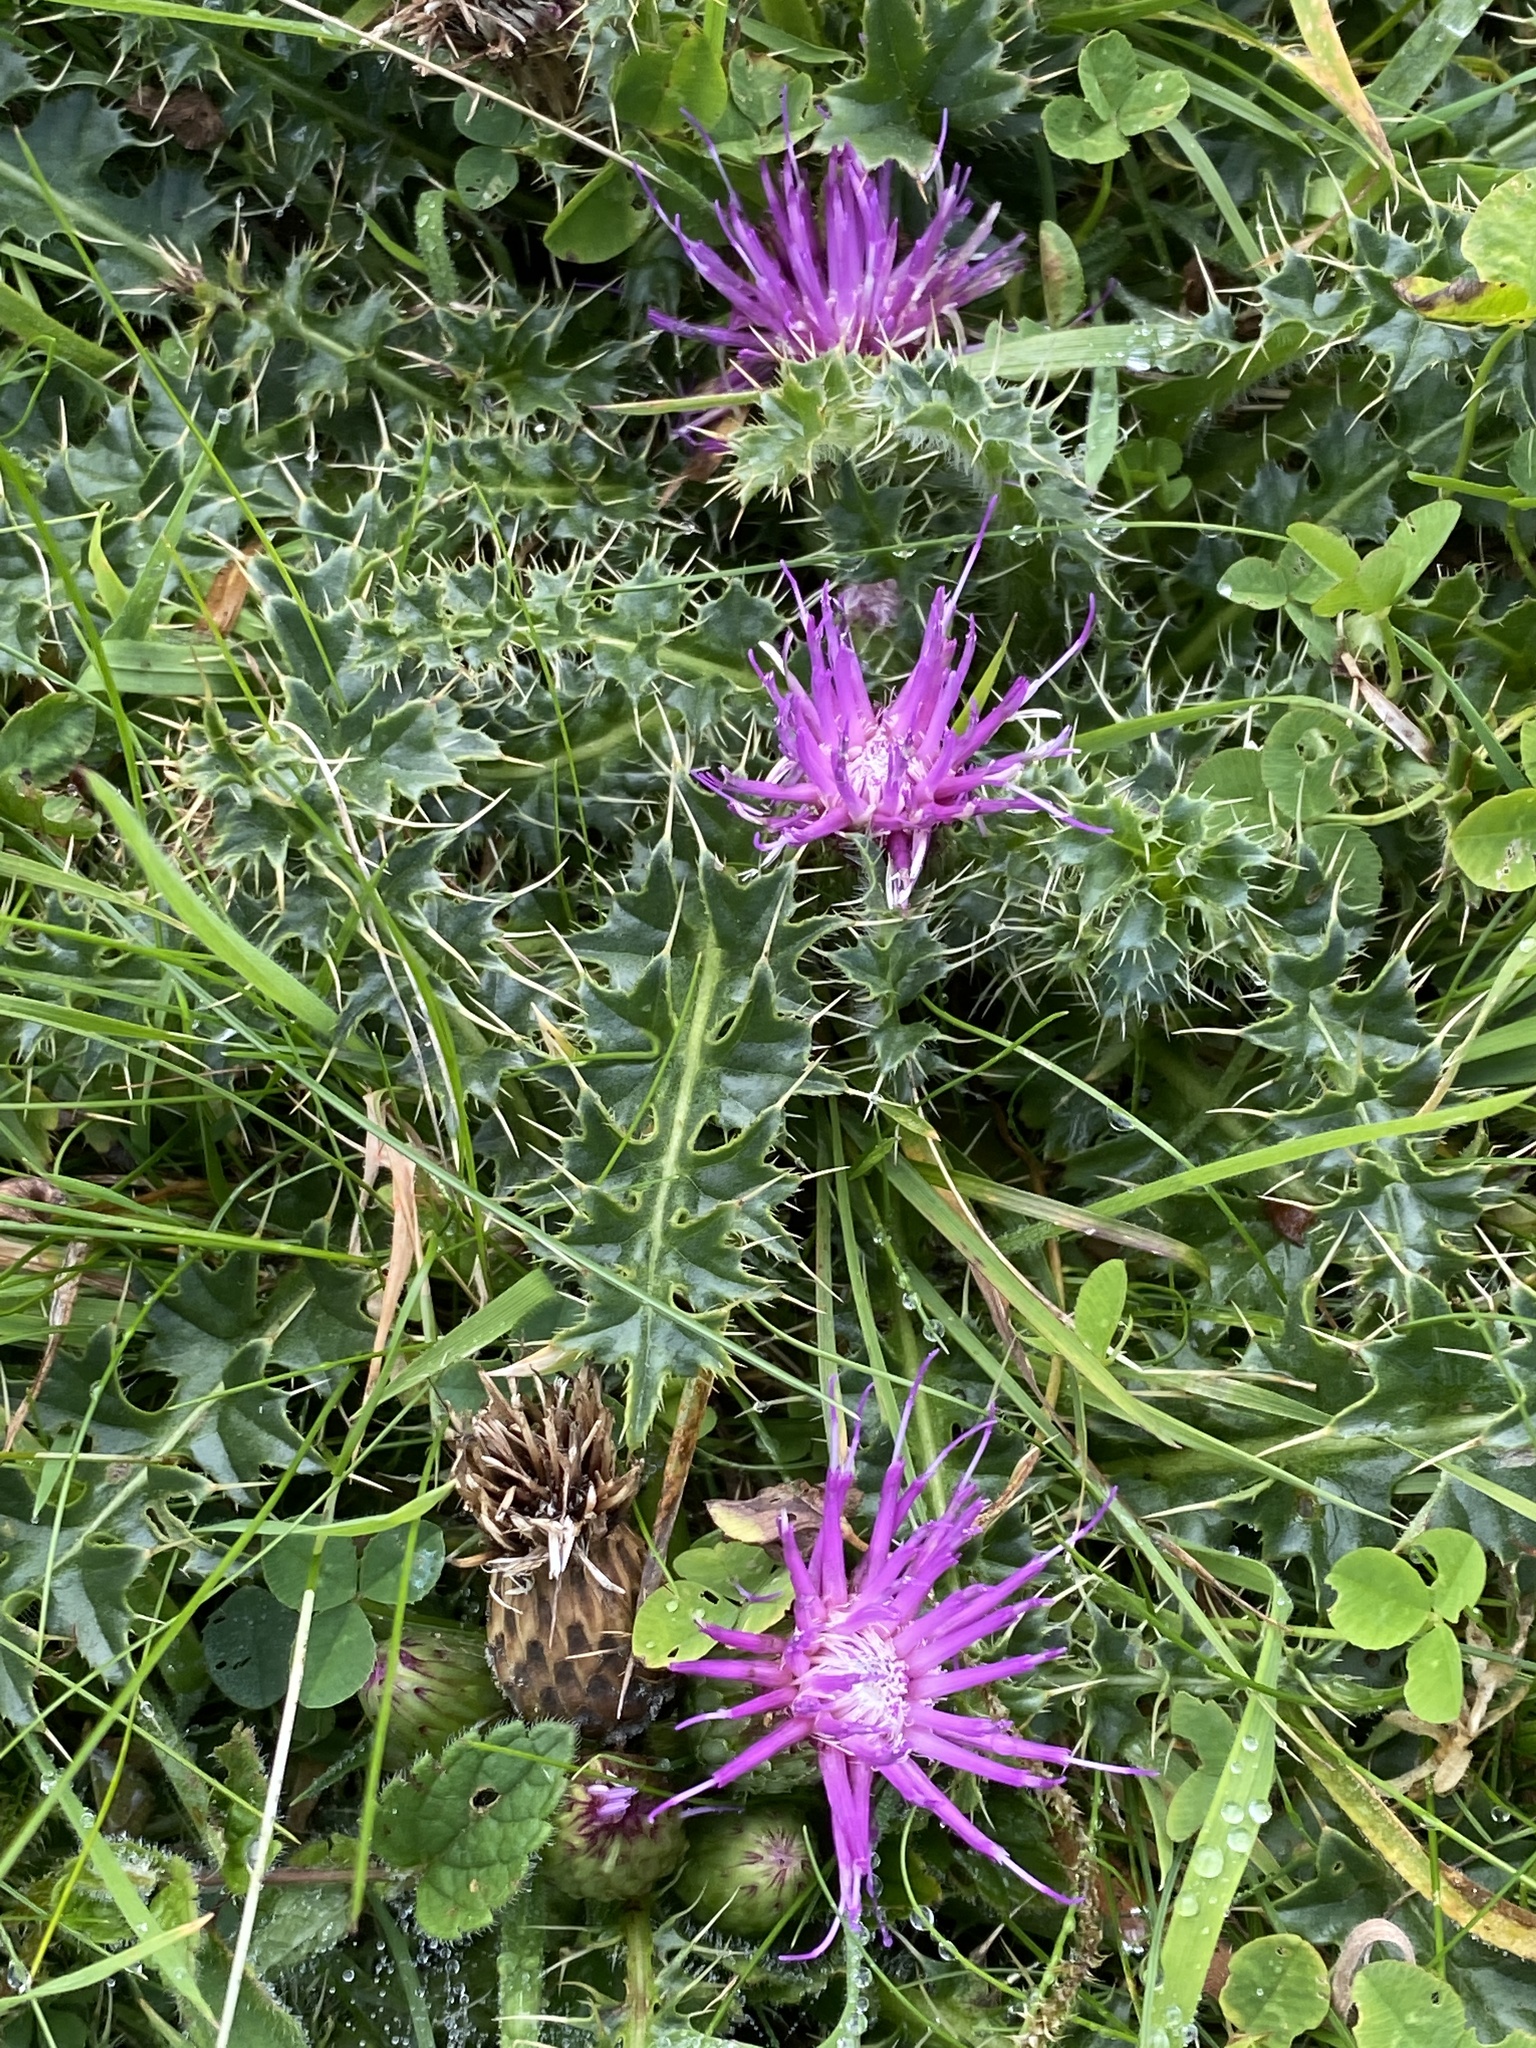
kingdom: Plantae
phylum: Tracheophyta
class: Magnoliopsida
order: Asterales
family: Asteraceae
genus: Cirsium
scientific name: Cirsium acaulon
